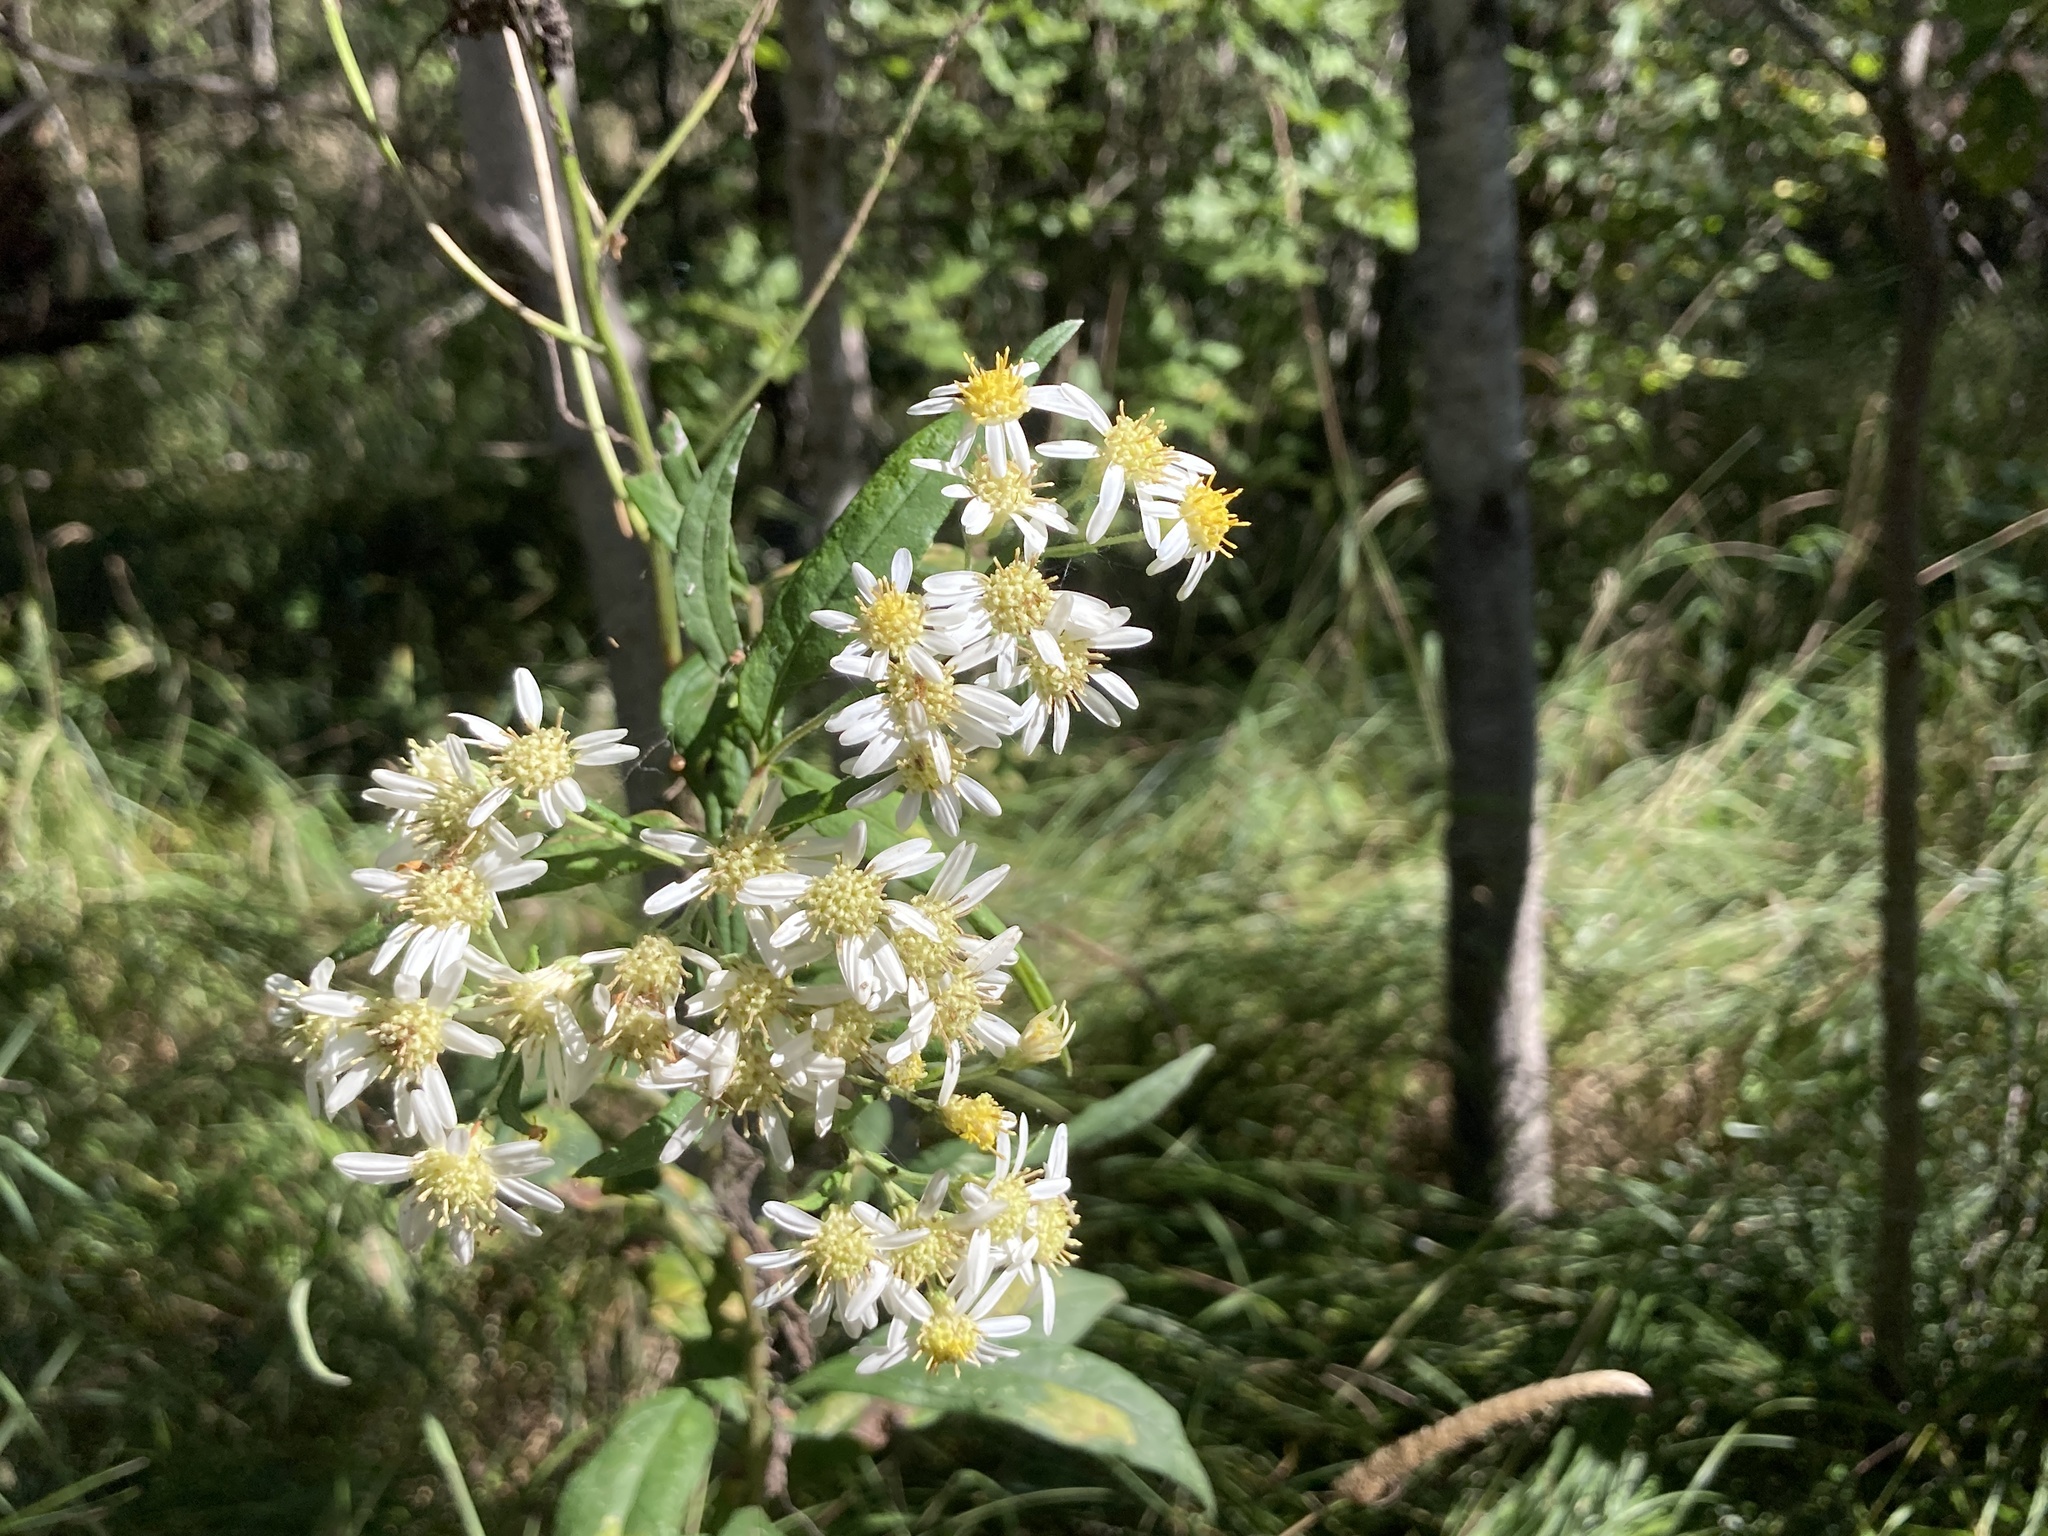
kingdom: Plantae
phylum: Tracheophyta
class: Magnoliopsida
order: Asterales
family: Asteraceae
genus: Doellingeria
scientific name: Doellingeria umbellata
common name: Flat-top white aster
